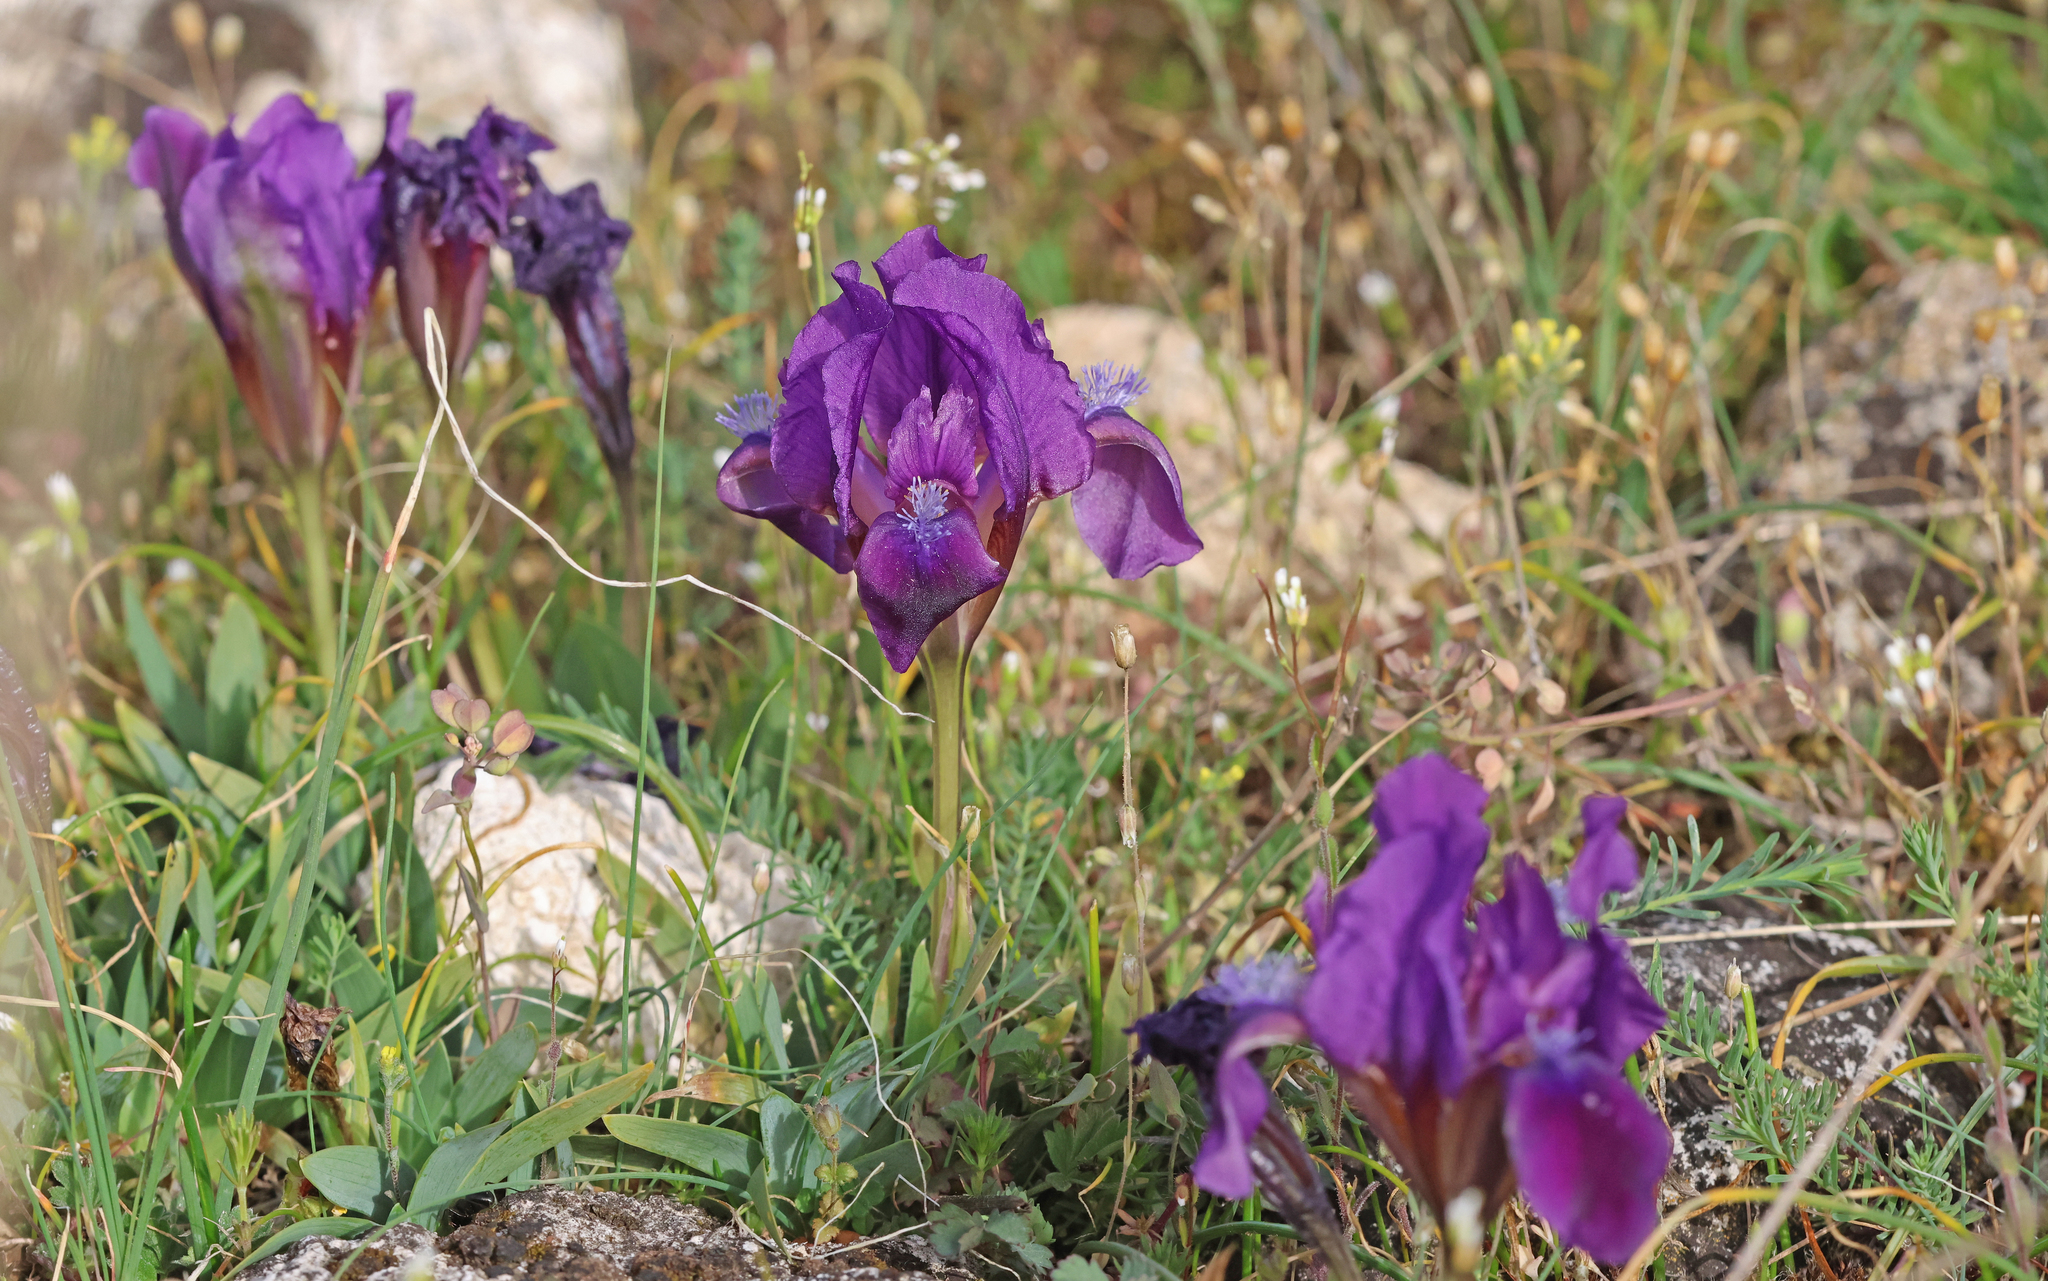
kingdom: Plantae
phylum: Tracheophyta
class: Liliopsida
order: Asparagales
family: Iridaceae
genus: Iris
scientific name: Iris pumila
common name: Dwarf iris
